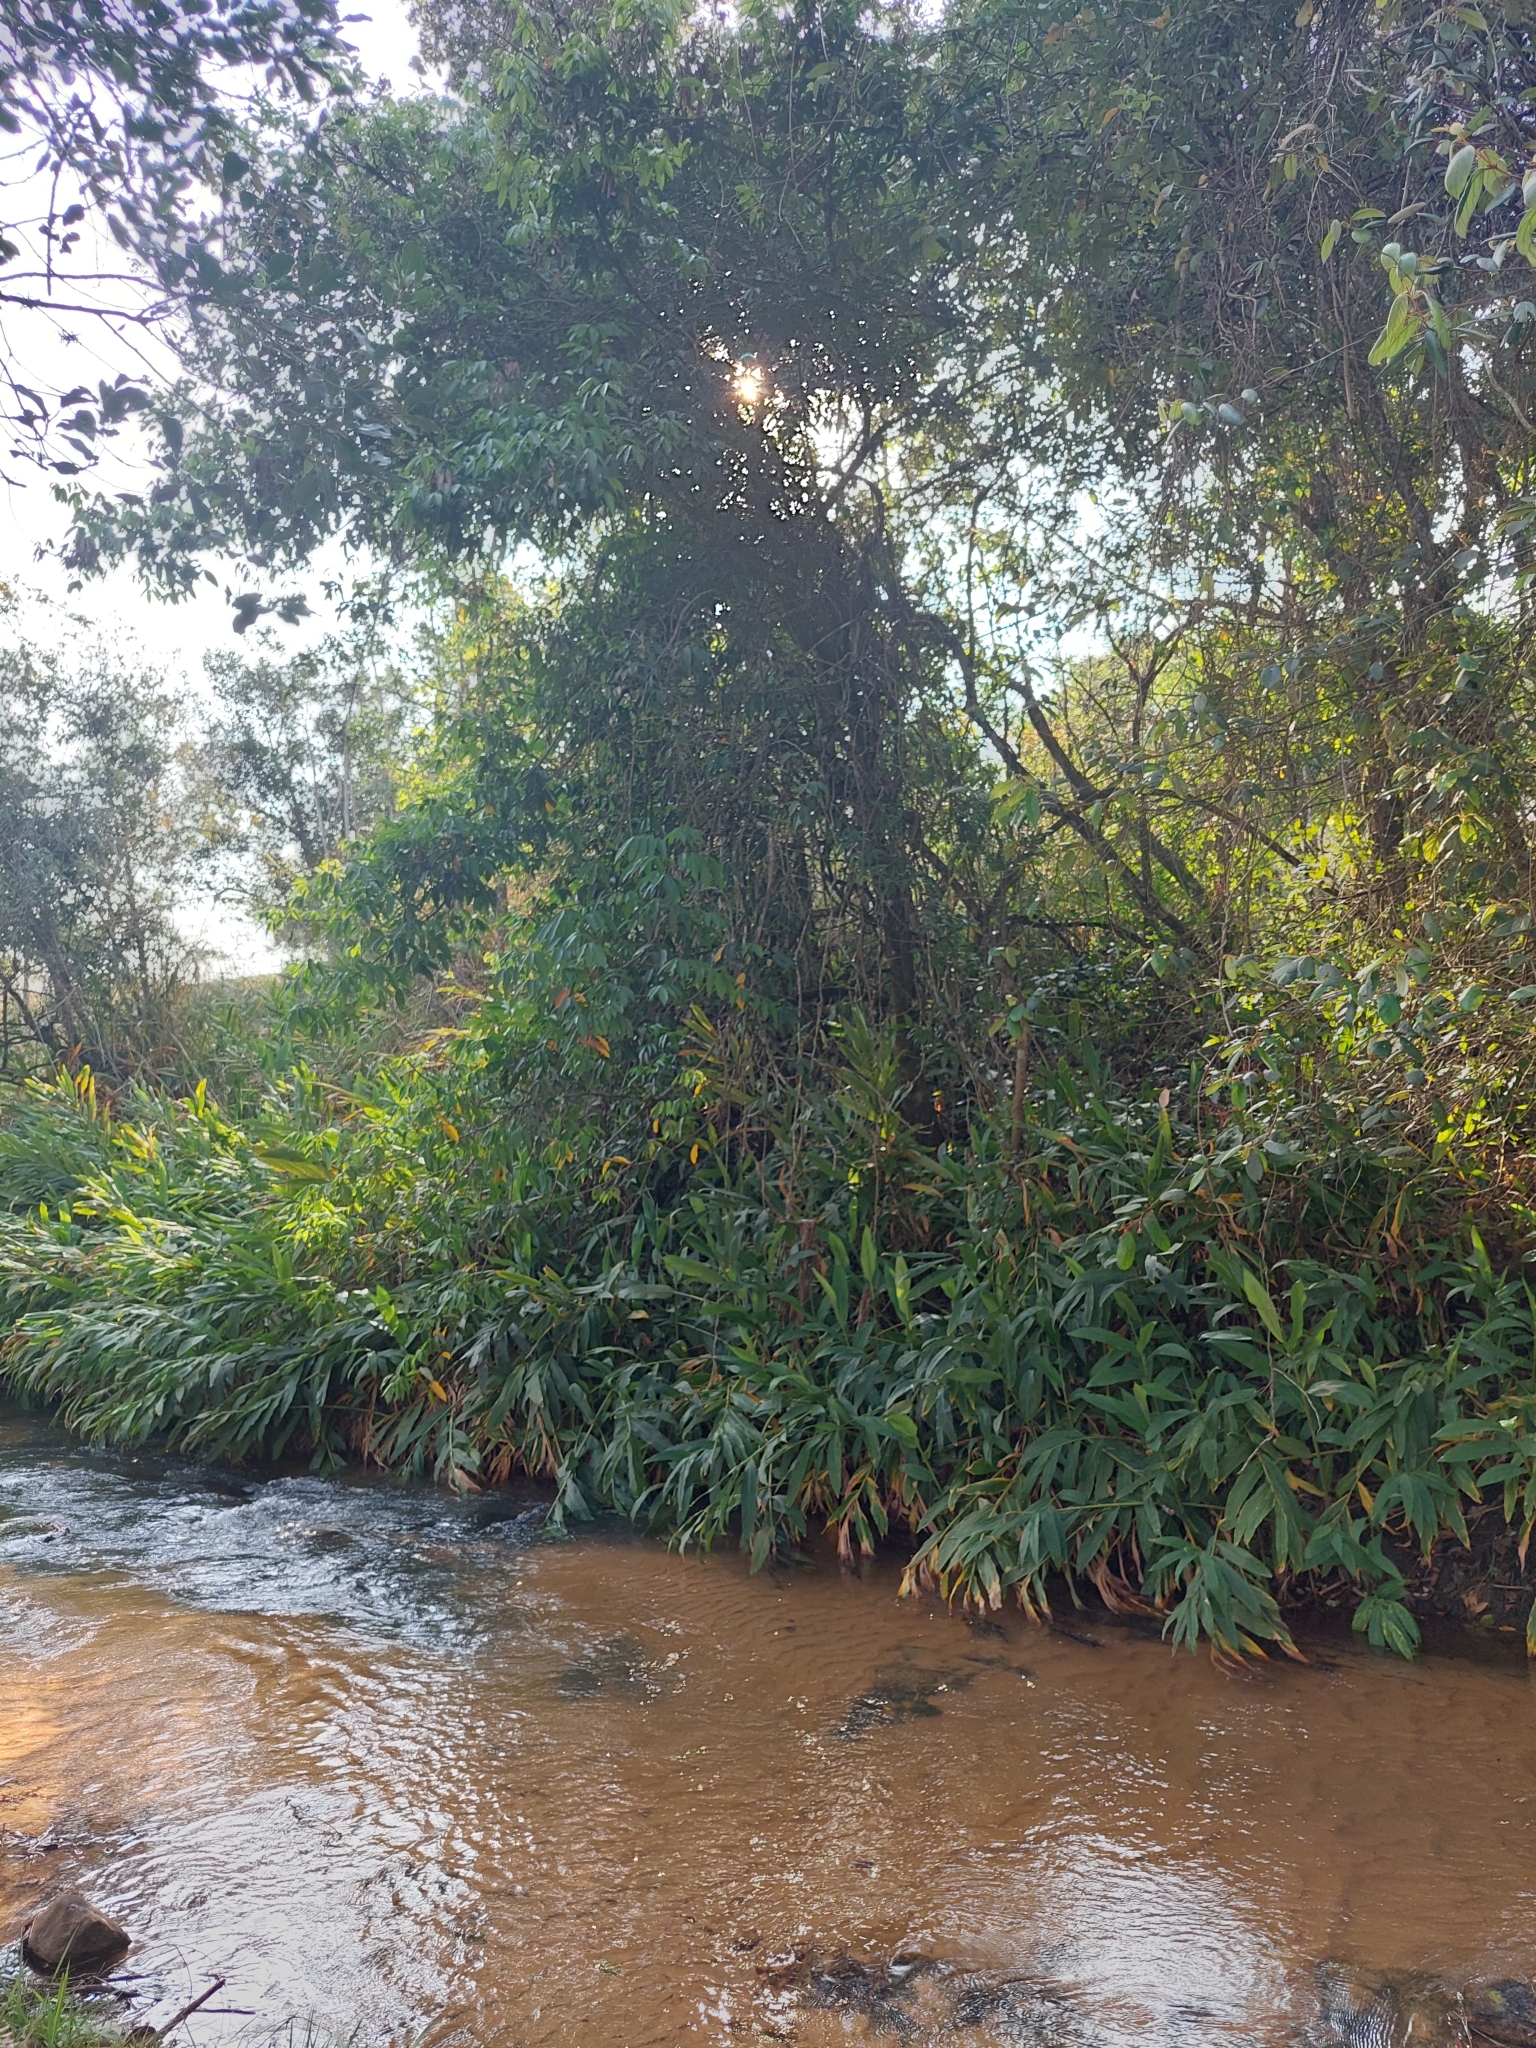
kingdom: Plantae
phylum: Tracheophyta
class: Liliopsida
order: Zingiberales
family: Zingiberaceae
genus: Hedychium
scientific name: Hedychium coronarium
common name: White garland-lily
